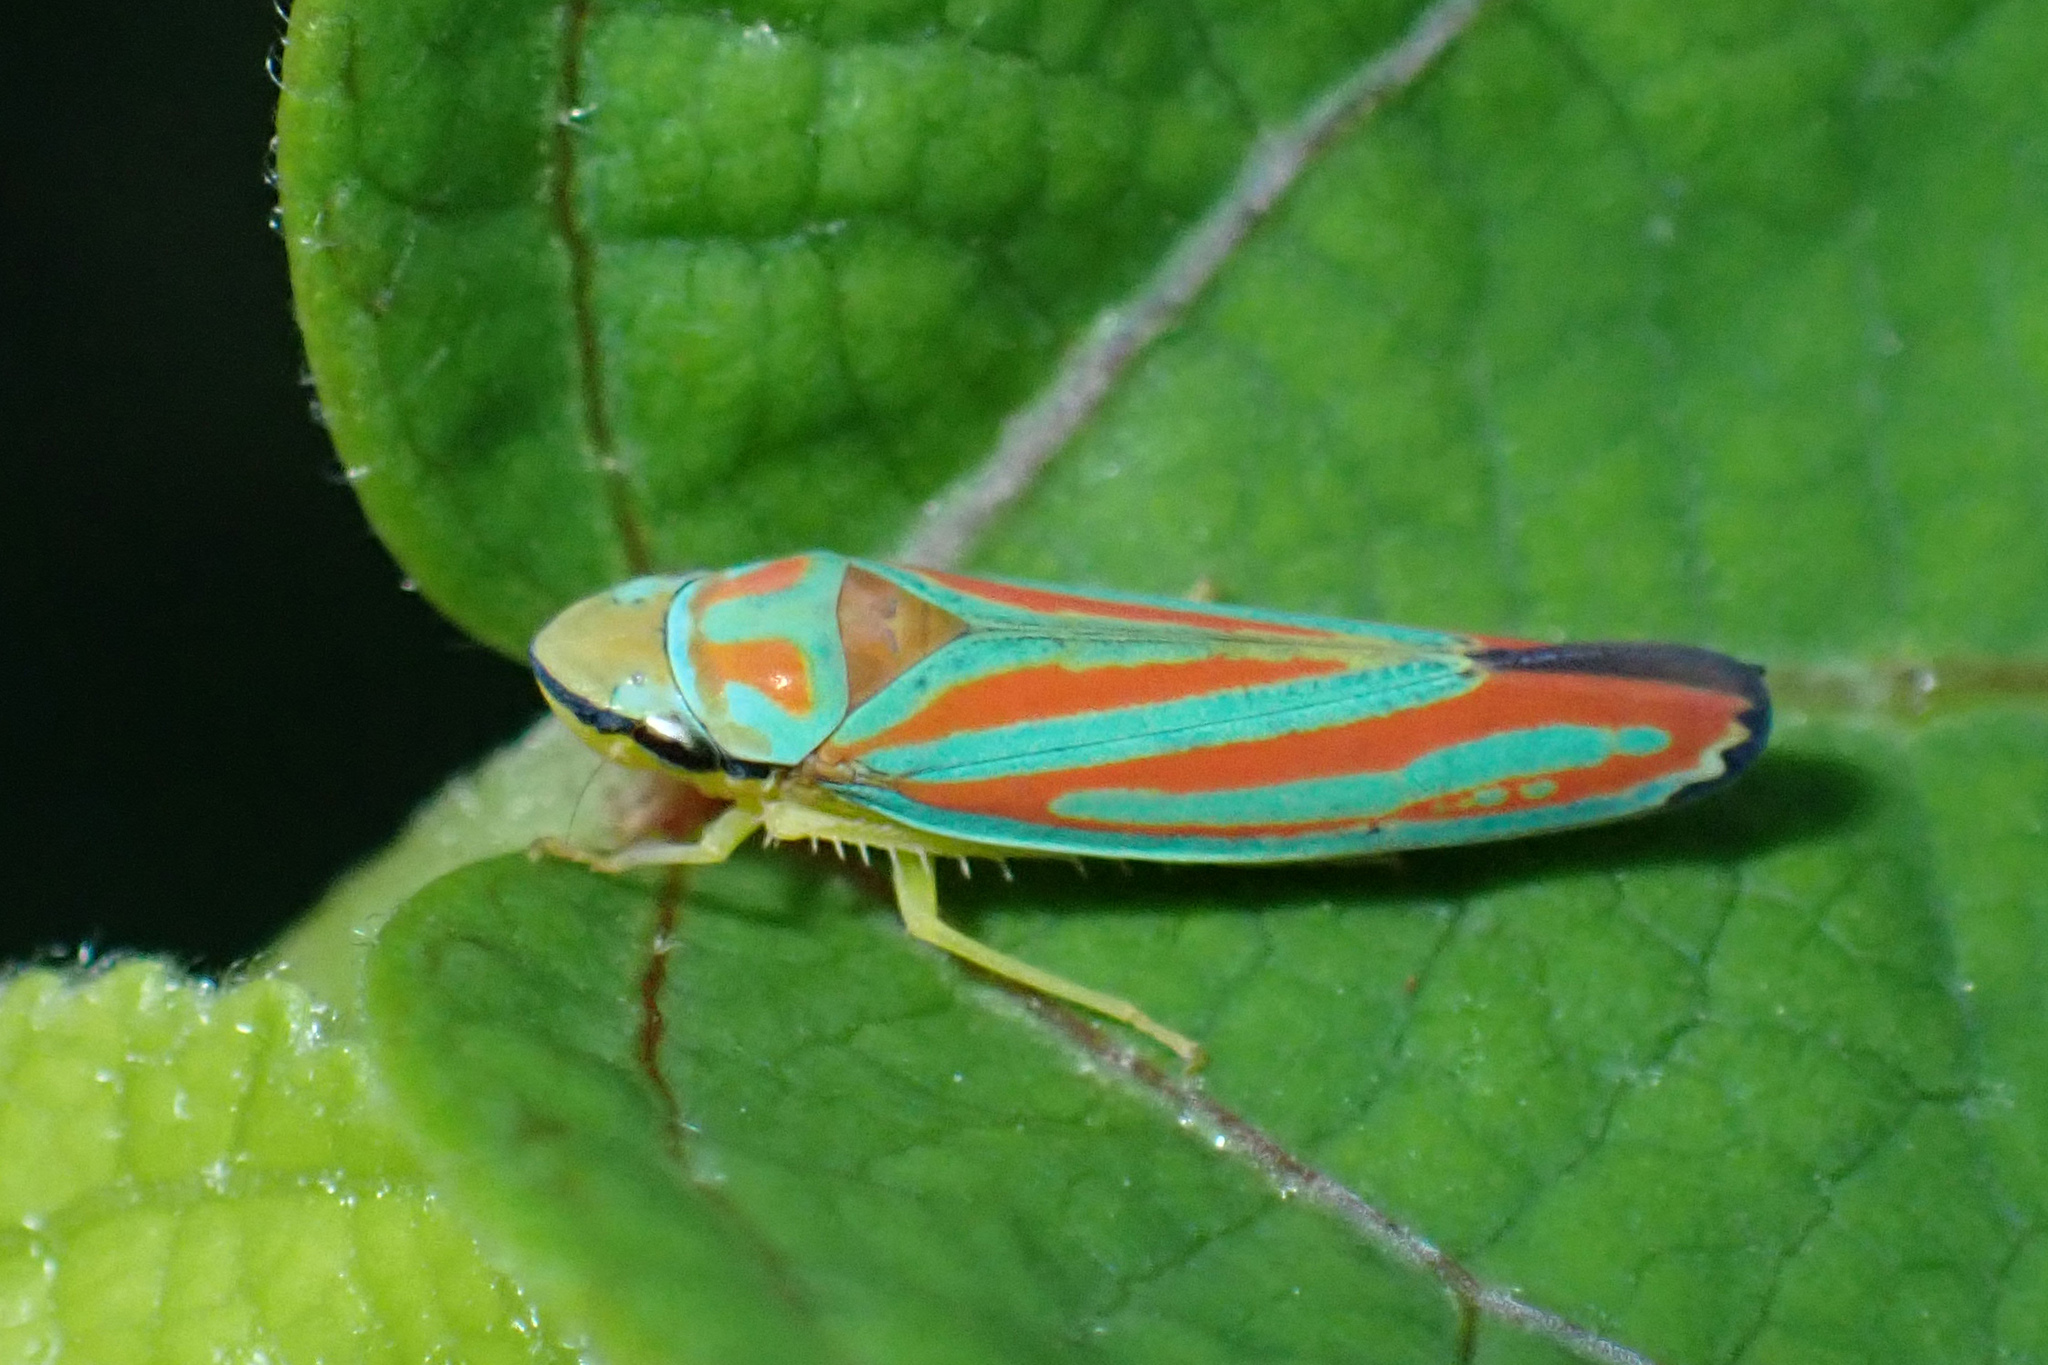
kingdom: Animalia
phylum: Arthropoda
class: Insecta
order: Hemiptera
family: Cicadellidae
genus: Graphocephala
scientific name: Graphocephala coccinea
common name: Candy-striped leafhopper
